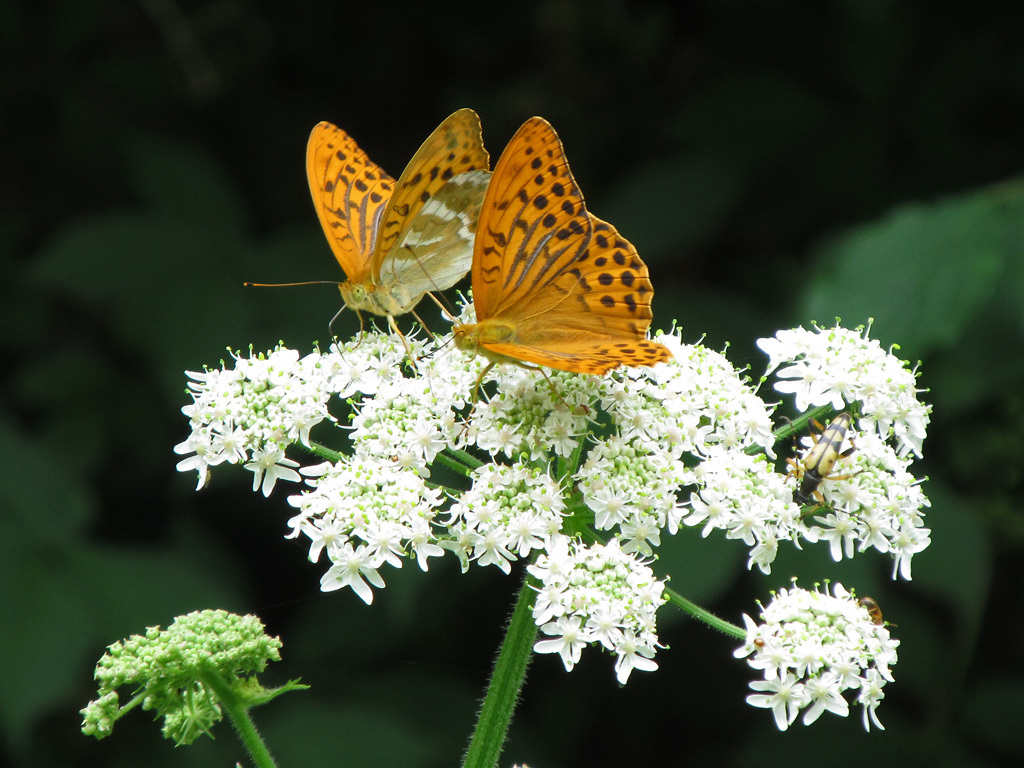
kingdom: Animalia
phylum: Arthropoda
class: Insecta
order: Lepidoptera
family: Nymphalidae
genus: Argynnis
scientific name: Argynnis paphia
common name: Silver-washed fritillary
